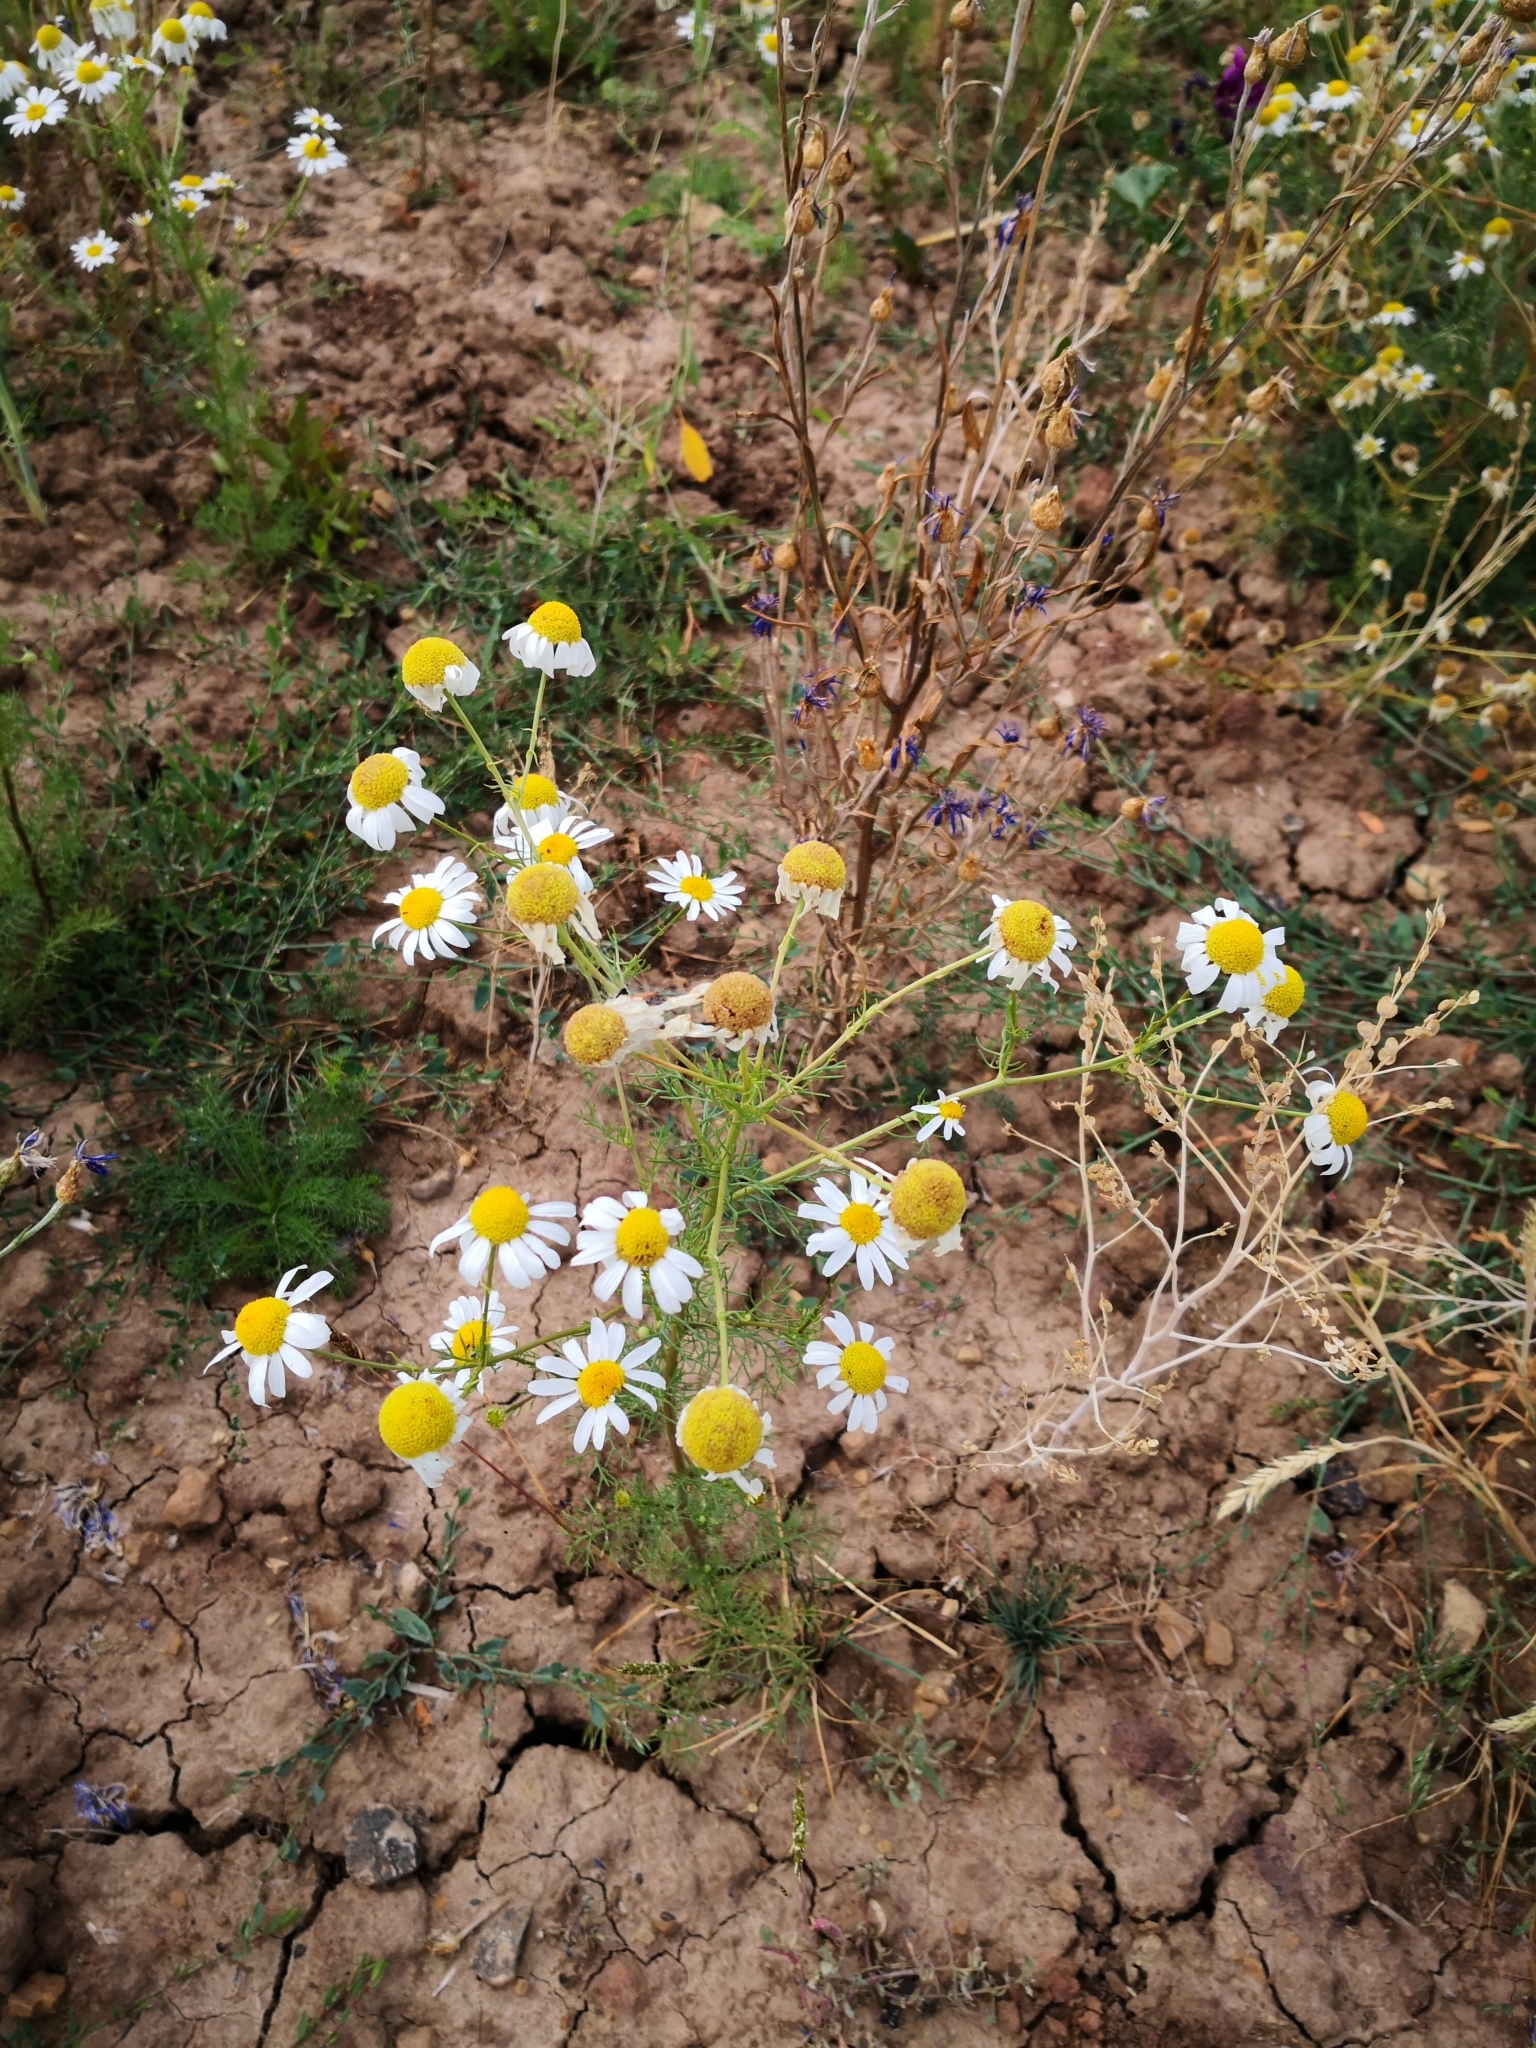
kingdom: Plantae
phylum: Tracheophyta
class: Magnoliopsida
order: Asterales
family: Asteraceae
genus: Matricaria
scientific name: Matricaria chamomilla
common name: Scented mayweed
